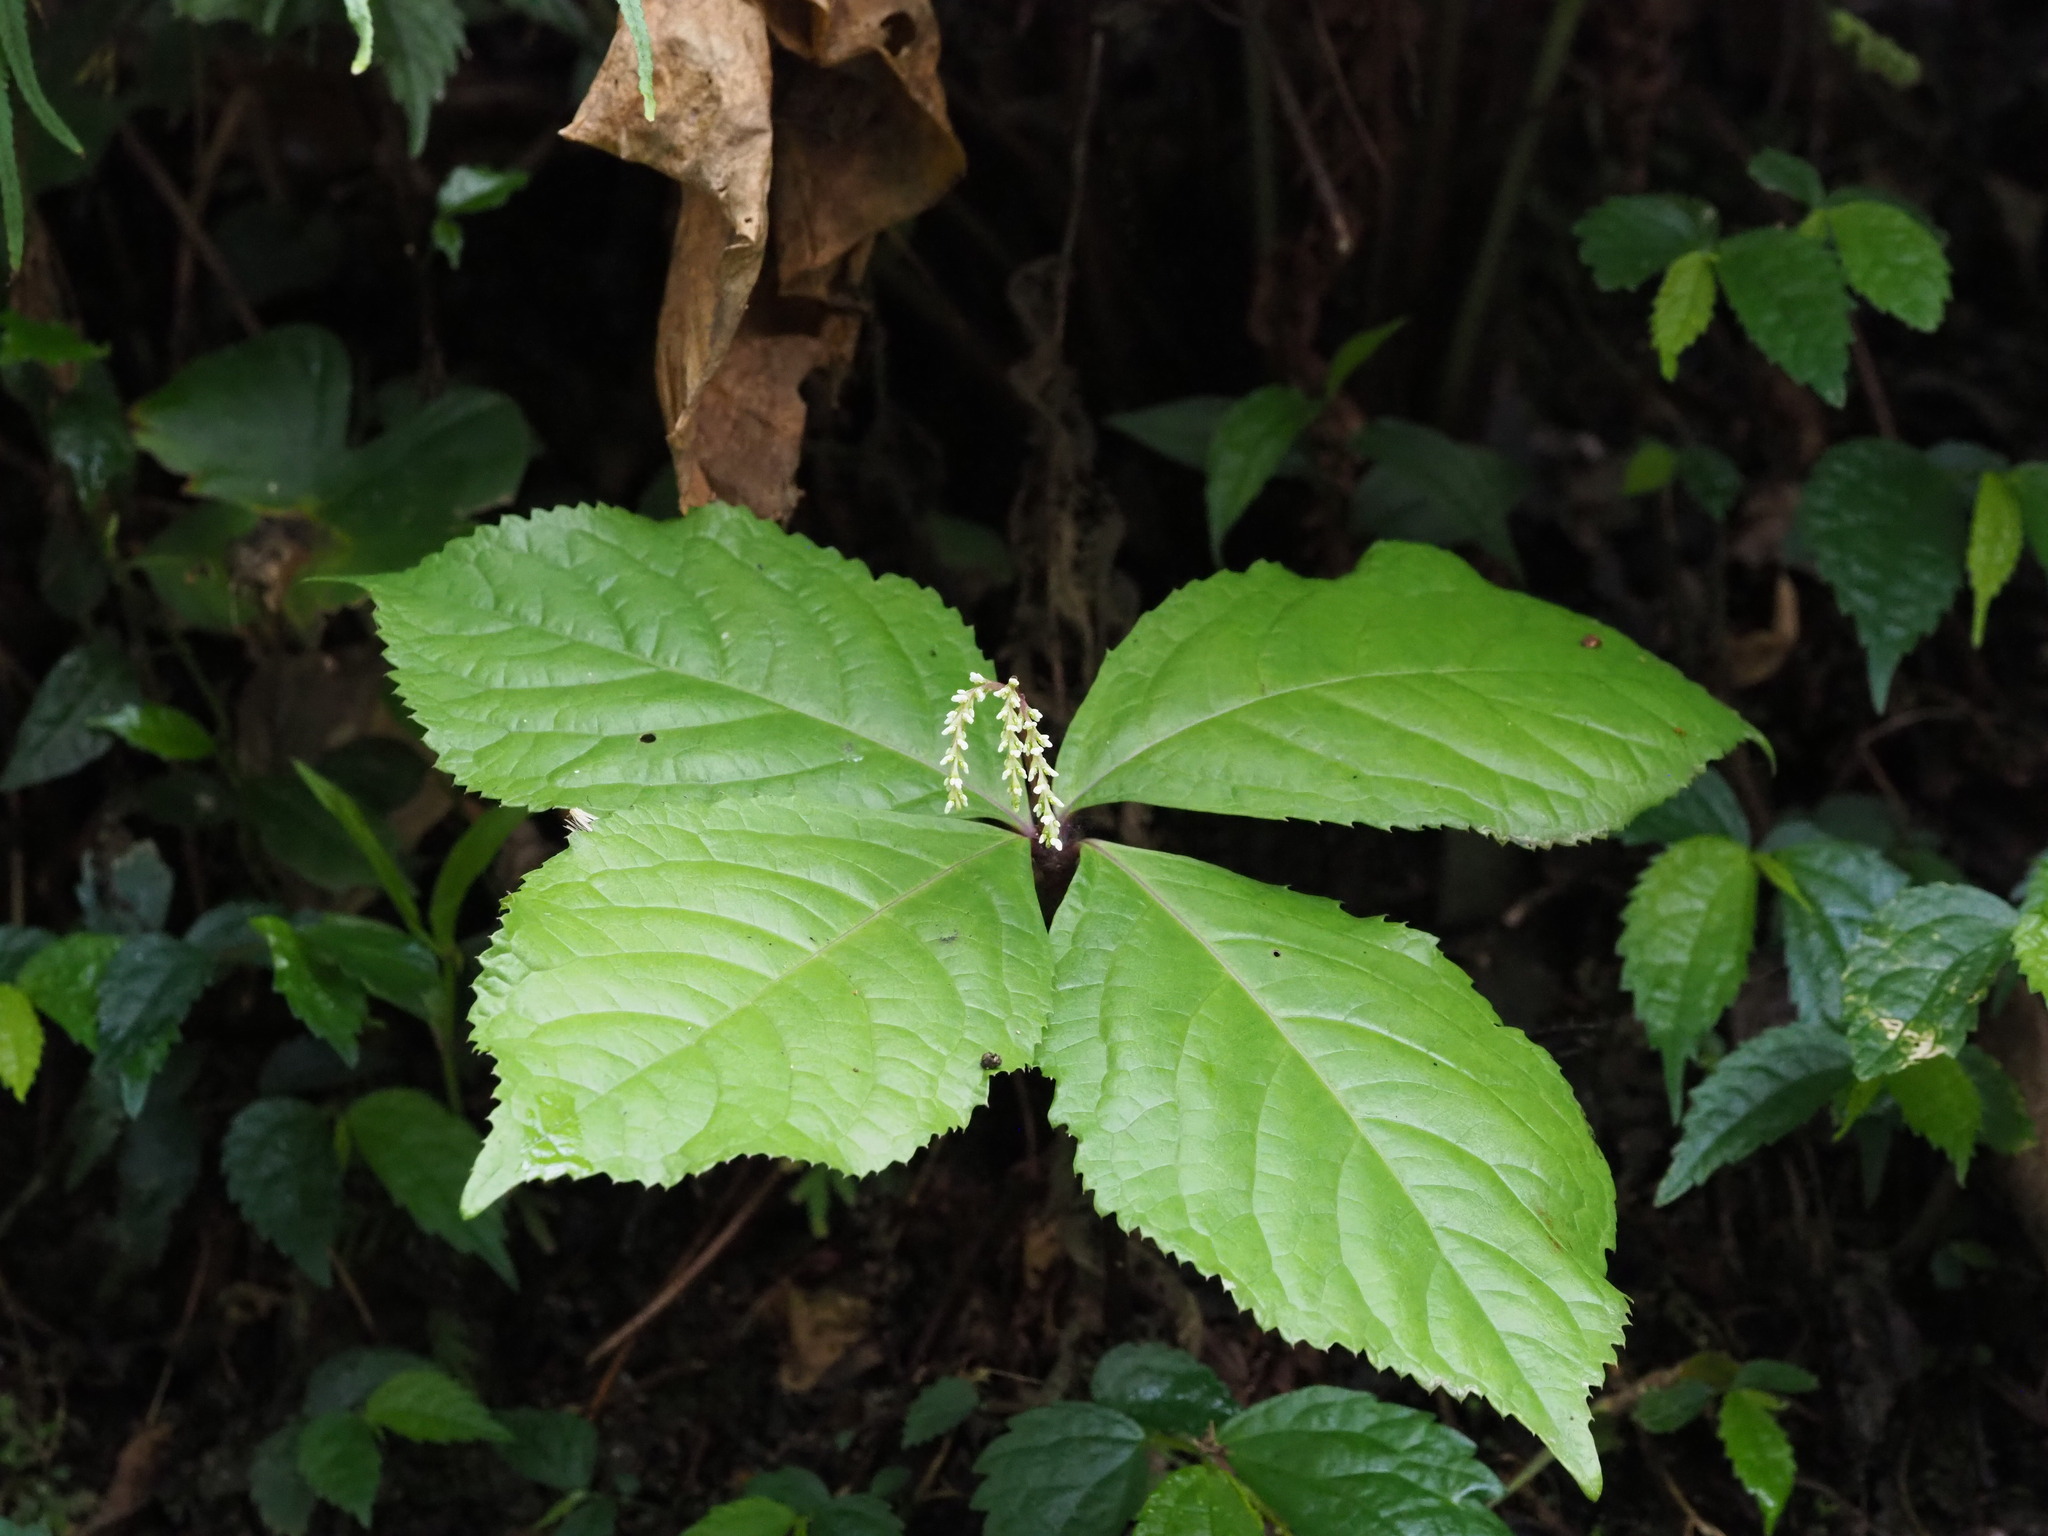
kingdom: Plantae
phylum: Tracheophyta
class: Magnoliopsida
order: Chloranthales
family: Chloranthaceae
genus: Chloranthus
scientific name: Chloranthus oldhamii
